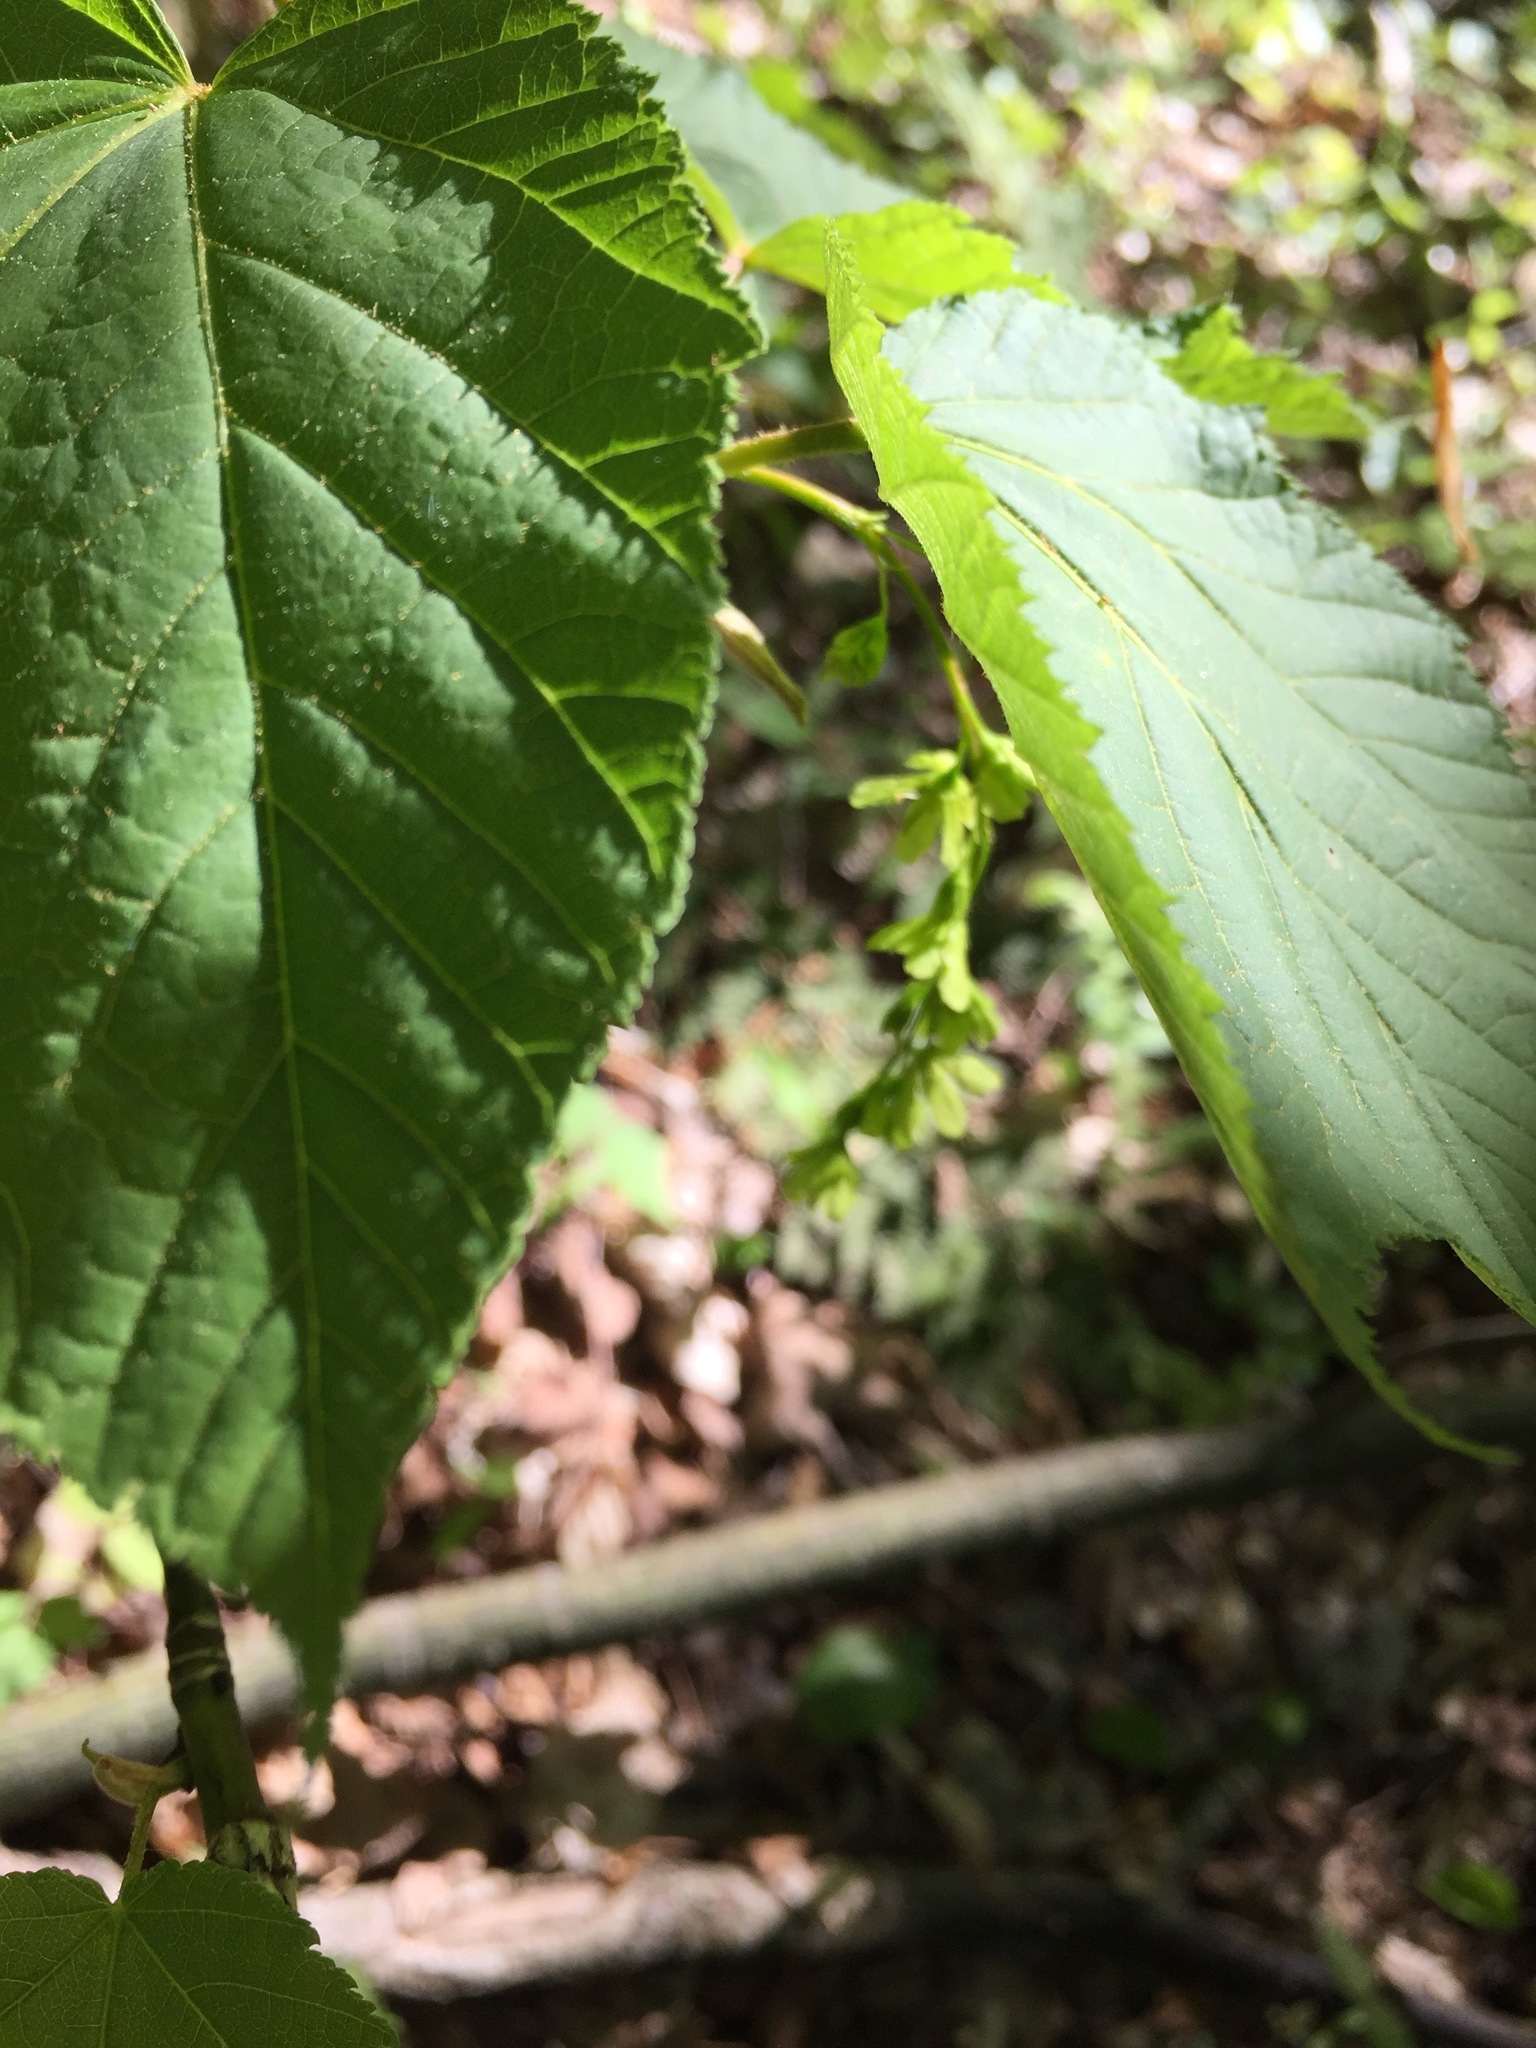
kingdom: Plantae
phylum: Tracheophyta
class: Magnoliopsida
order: Sapindales
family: Sapindaceae
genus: Acer
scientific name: Acer pensylvanicum
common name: Moosewood
